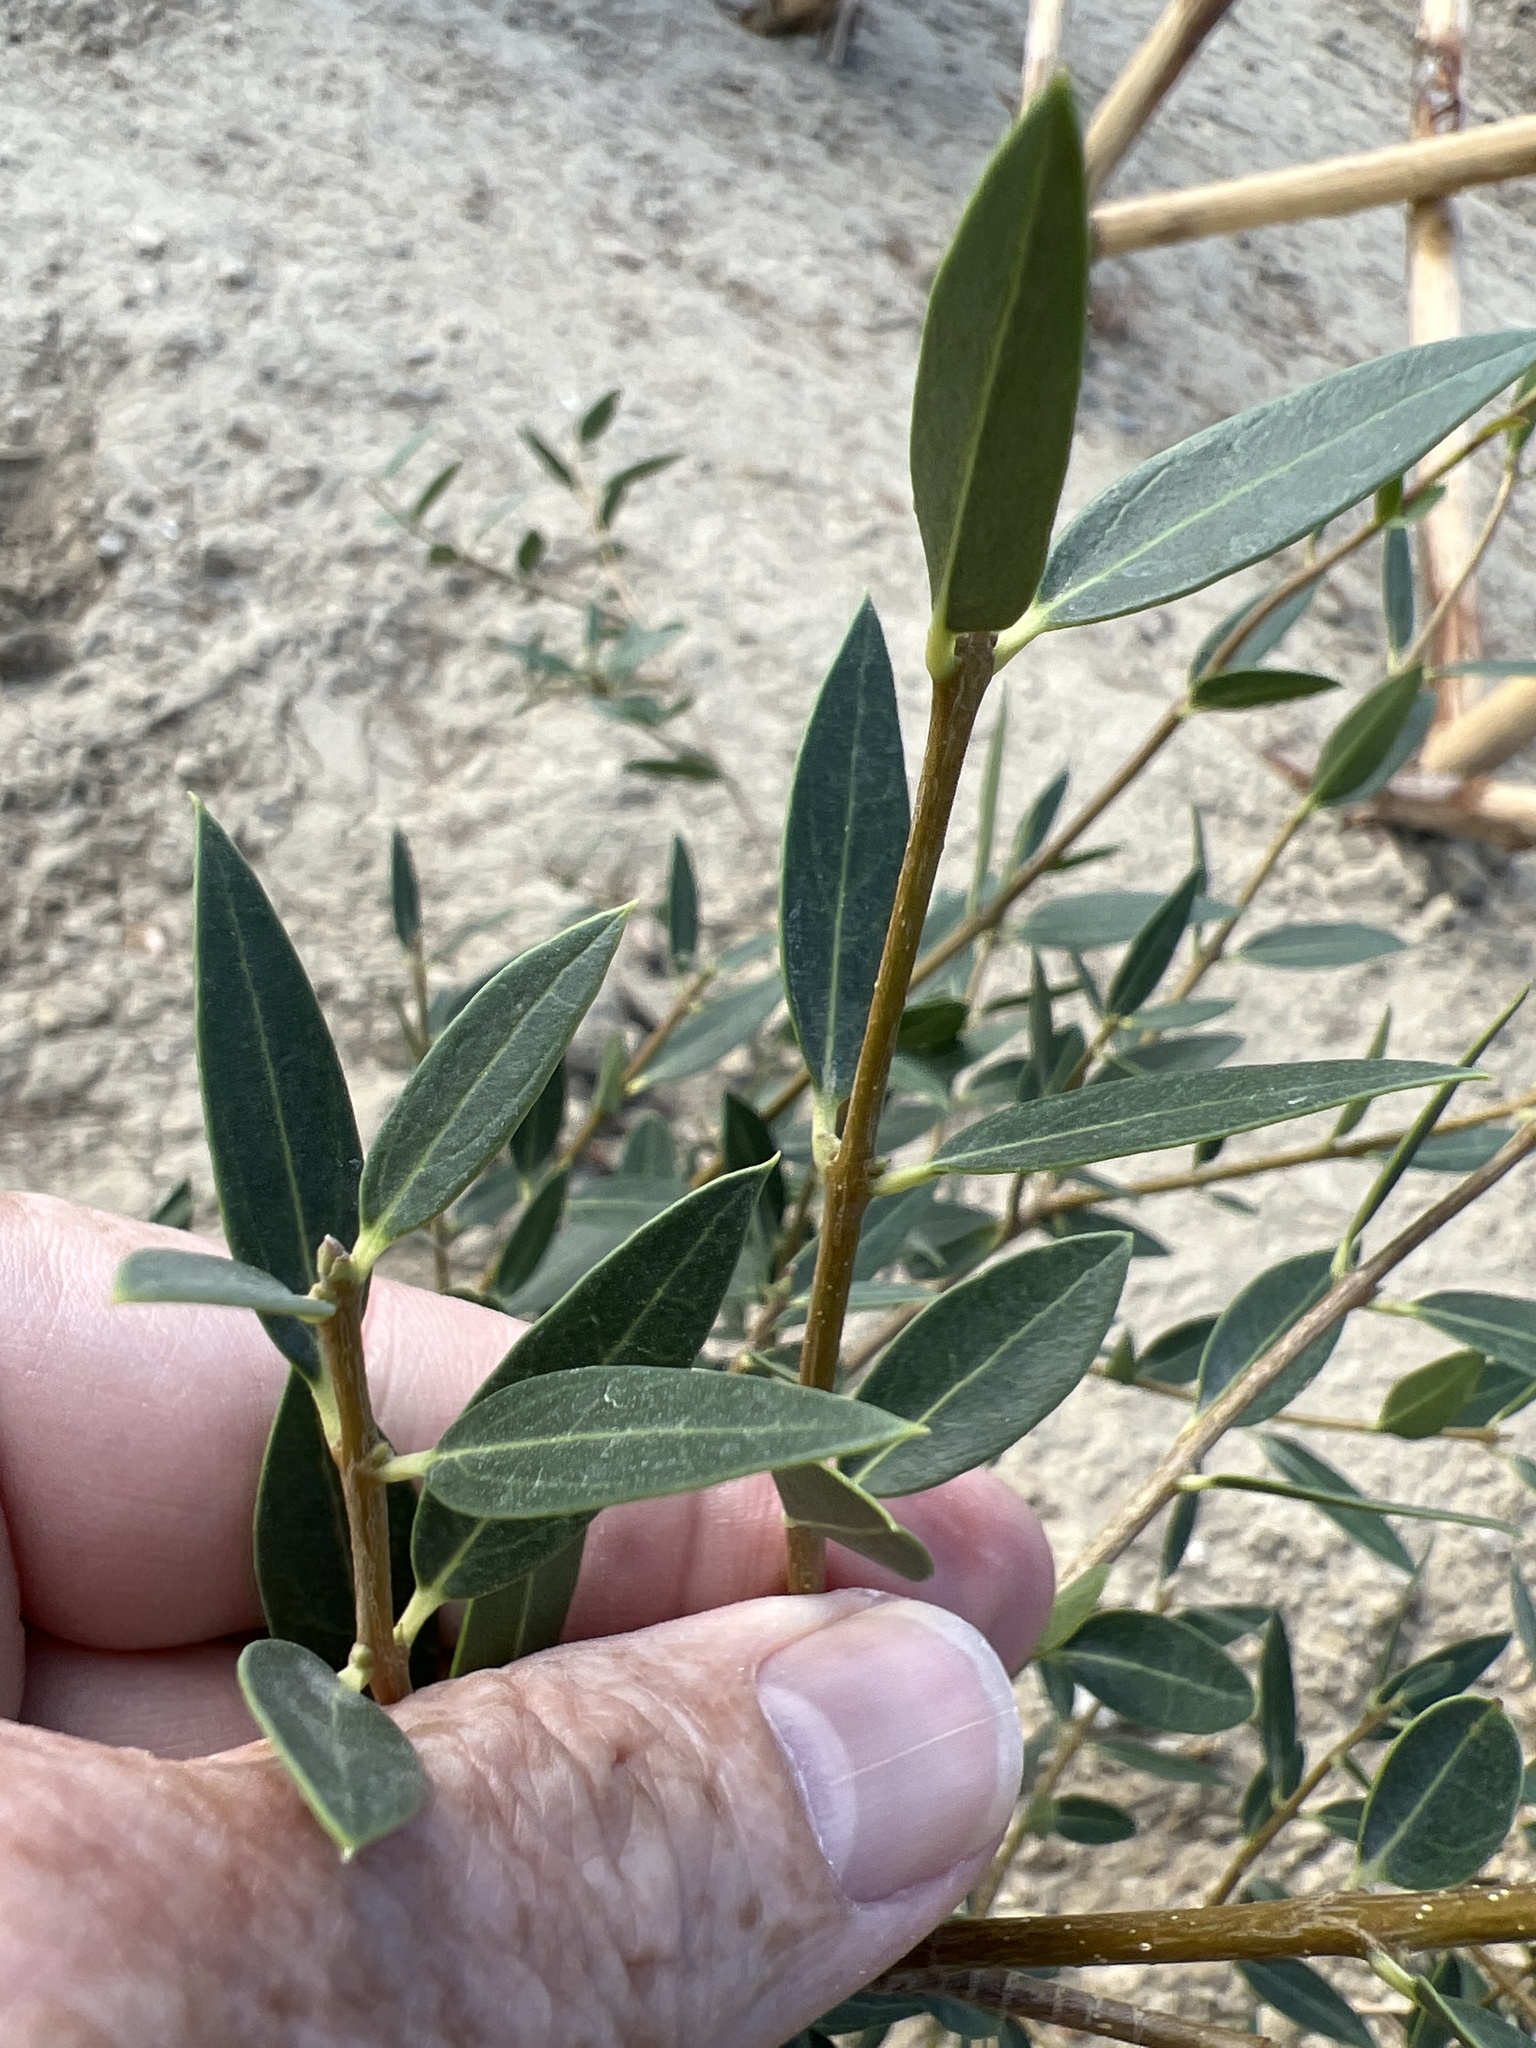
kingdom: Plantae
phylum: Tracheophyta
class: Magnoliopsida
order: Lamiales
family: Oleaceae
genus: Phillyrea
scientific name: Phillyrea latifolia
